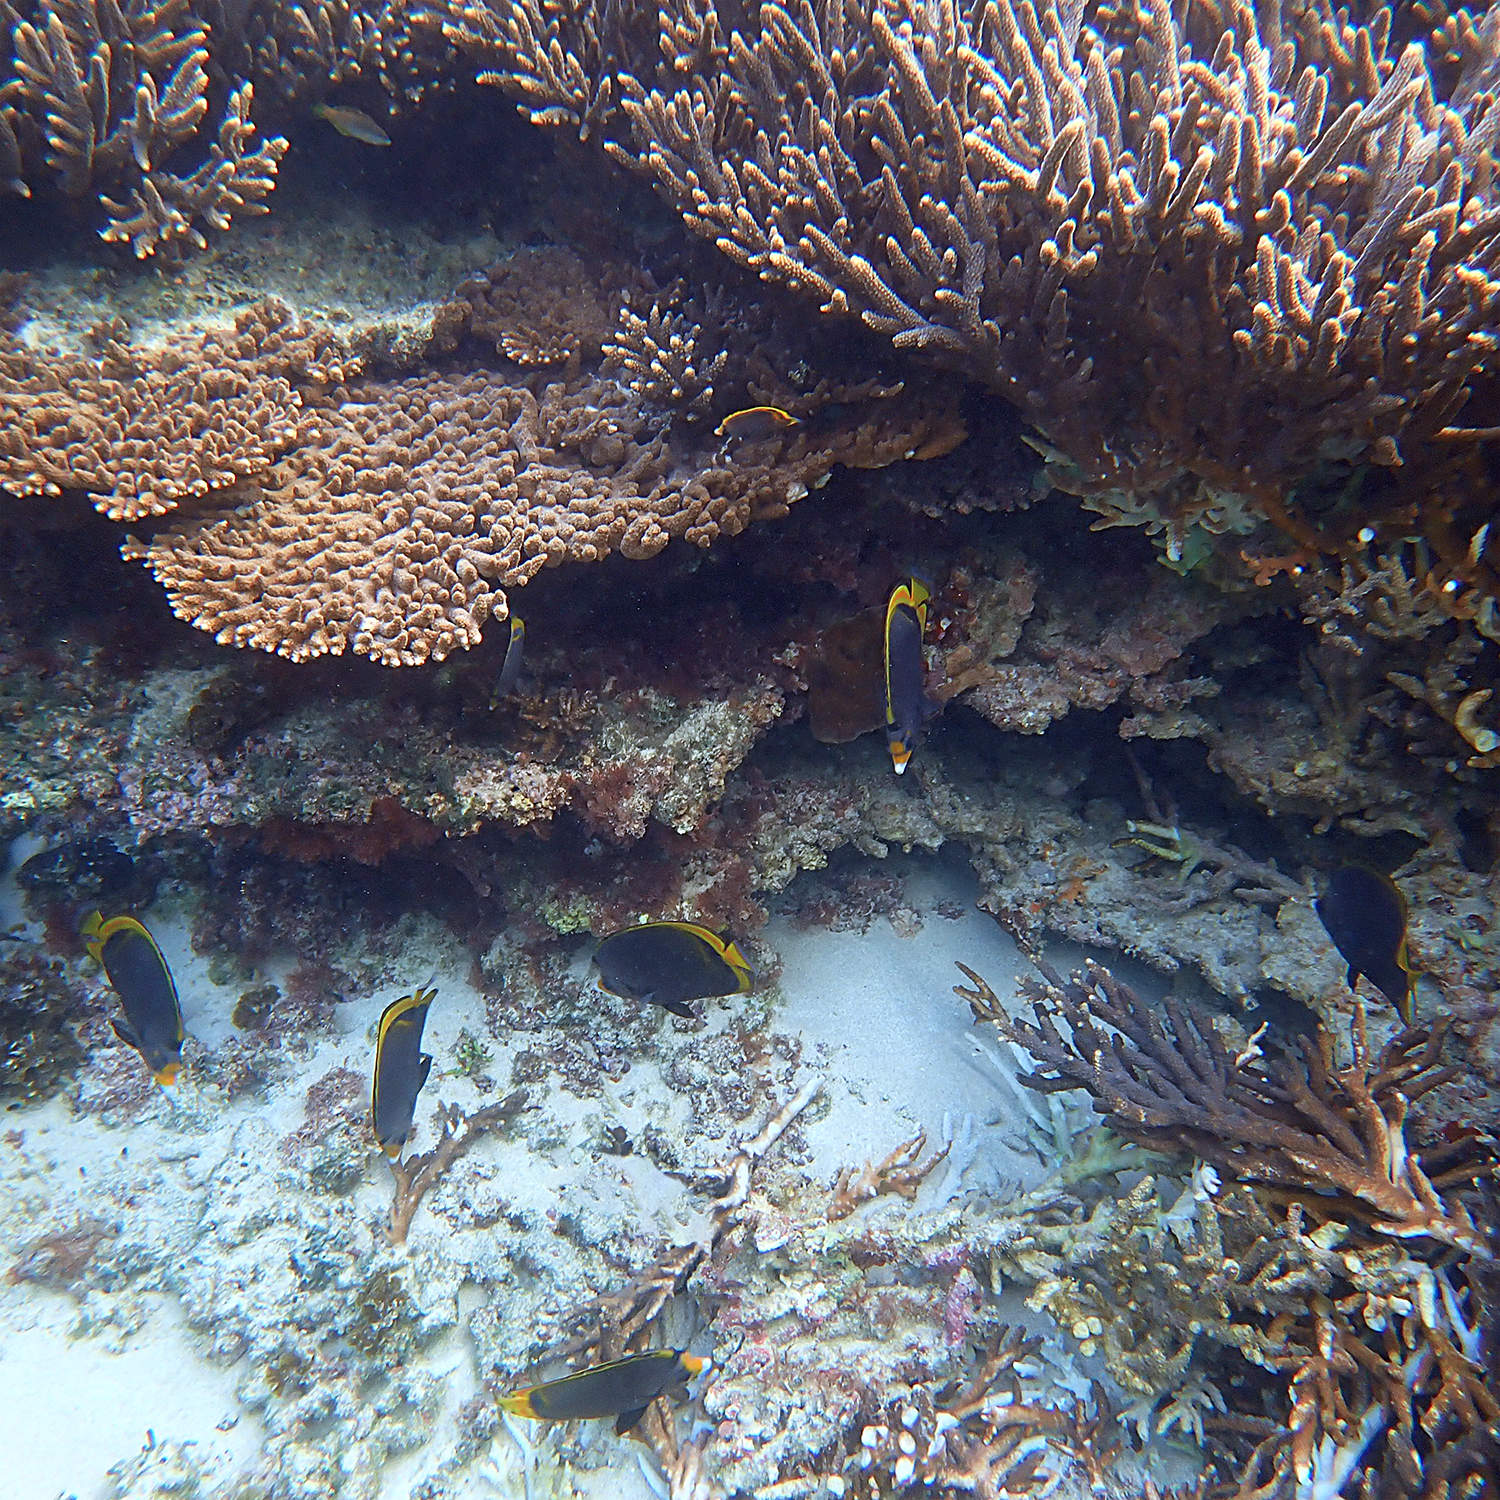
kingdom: Animalia
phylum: Chordata
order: Perciformes
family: Chaetodontidae
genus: Chaetodon
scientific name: Chaetodon flavirostris
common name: Black butterflyfish
